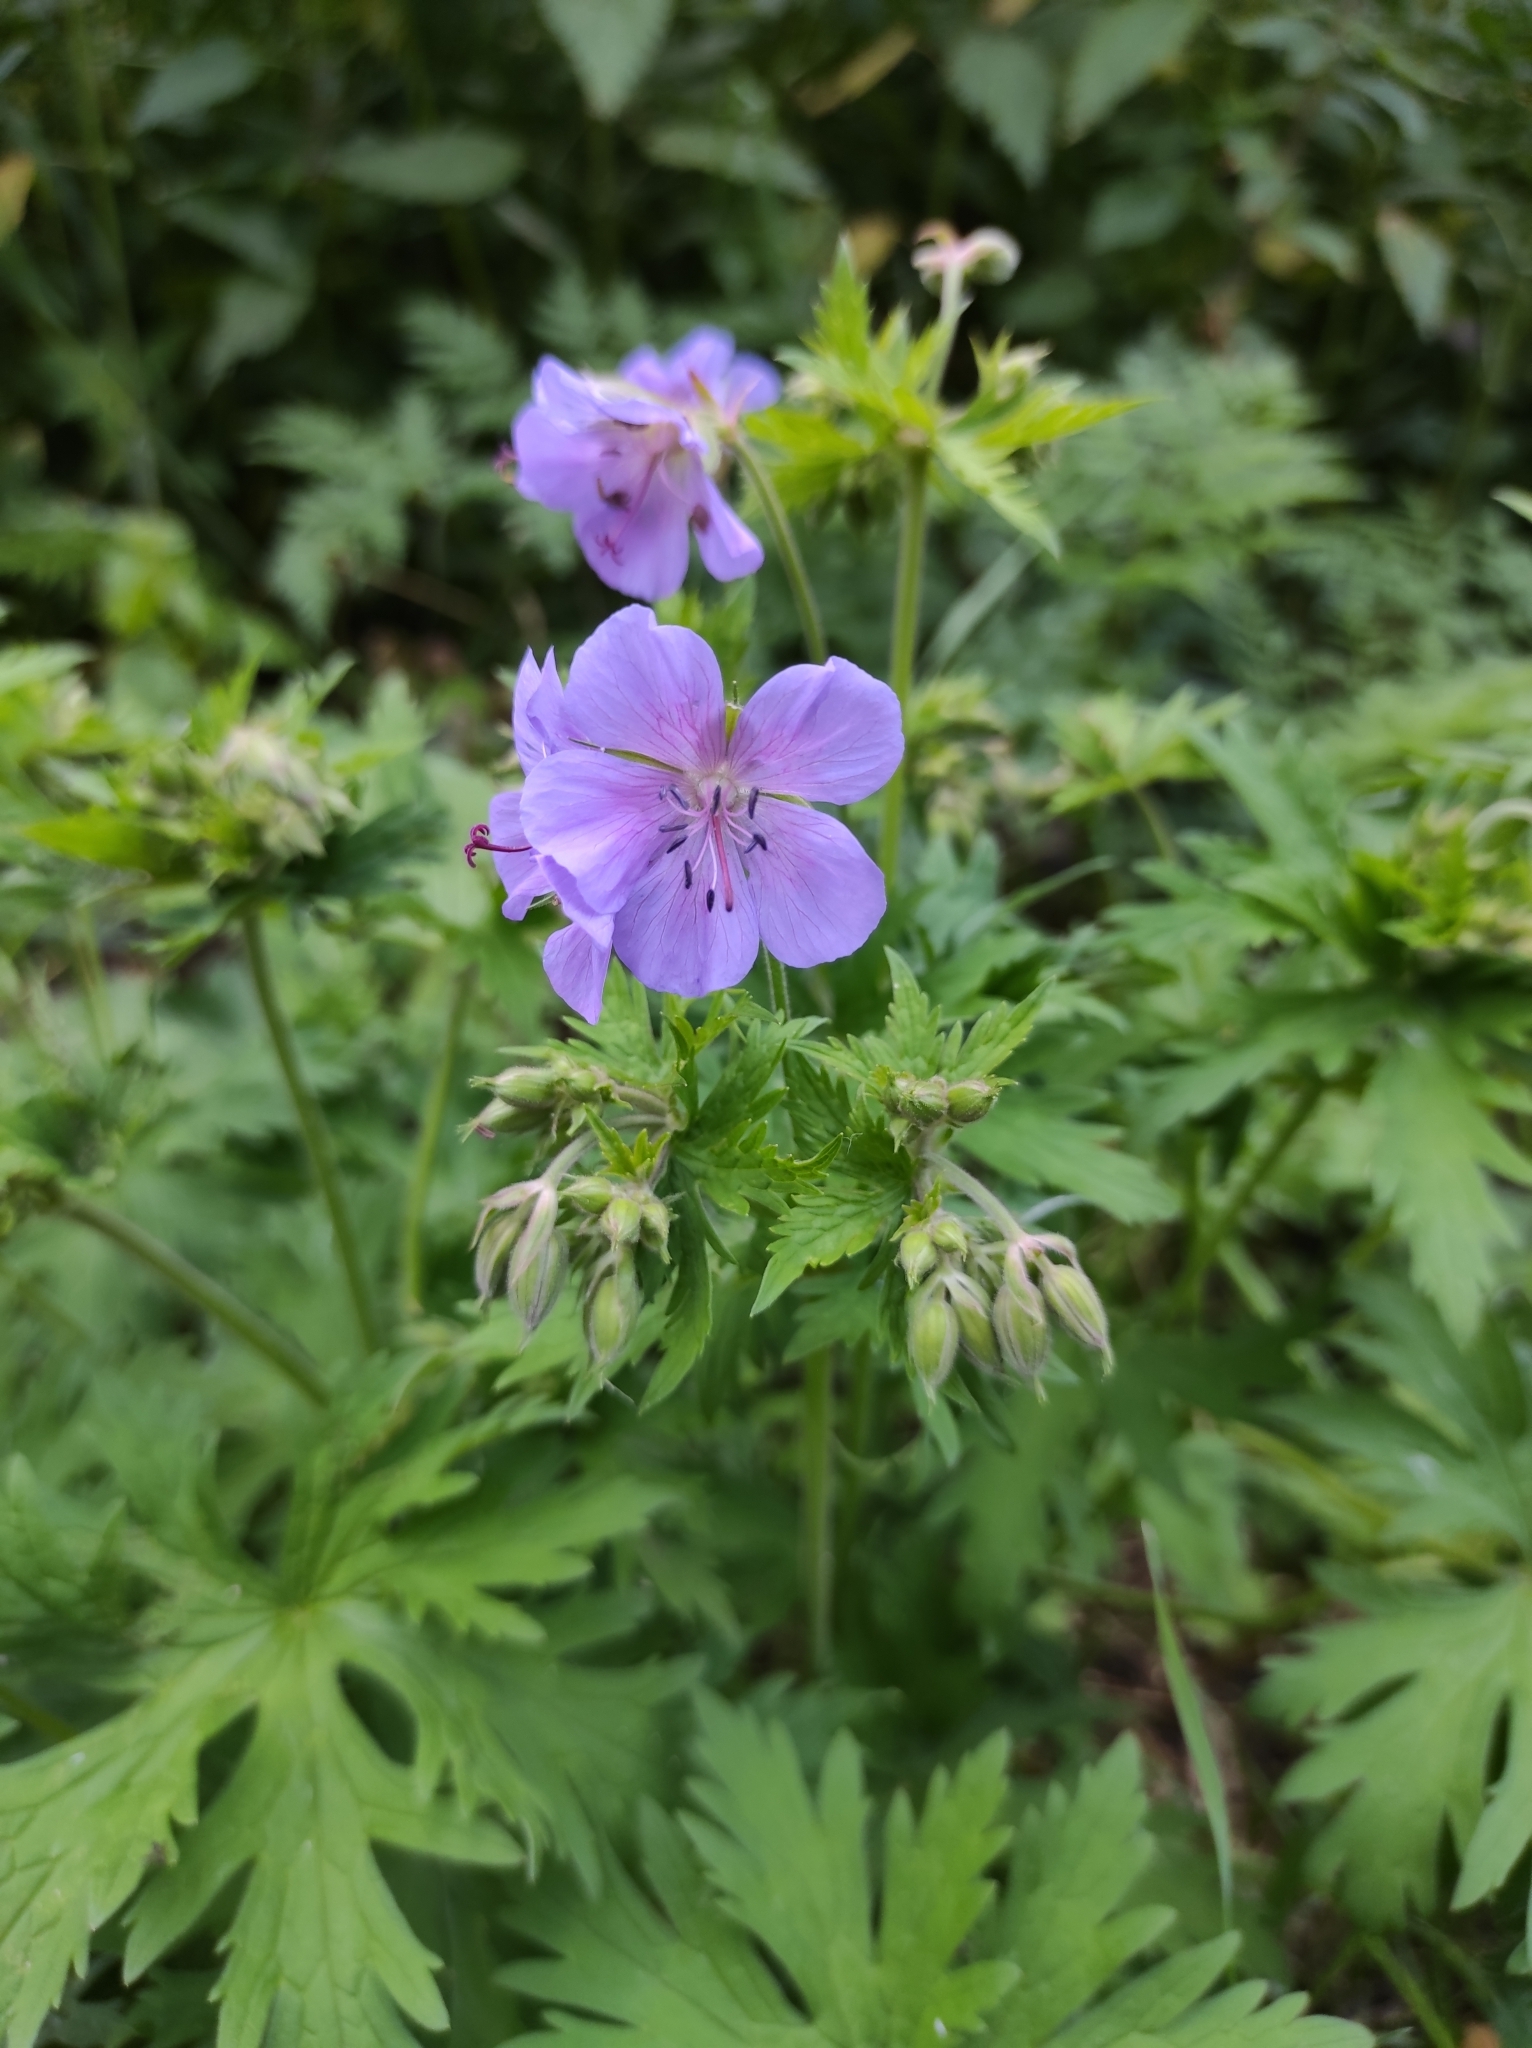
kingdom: Plantae
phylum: Tracheophyta
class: Magnoliopsida
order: Geraniales
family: Geraniaceae
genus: Geranium
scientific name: Geranium pratense
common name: Meadow crane's-bill
